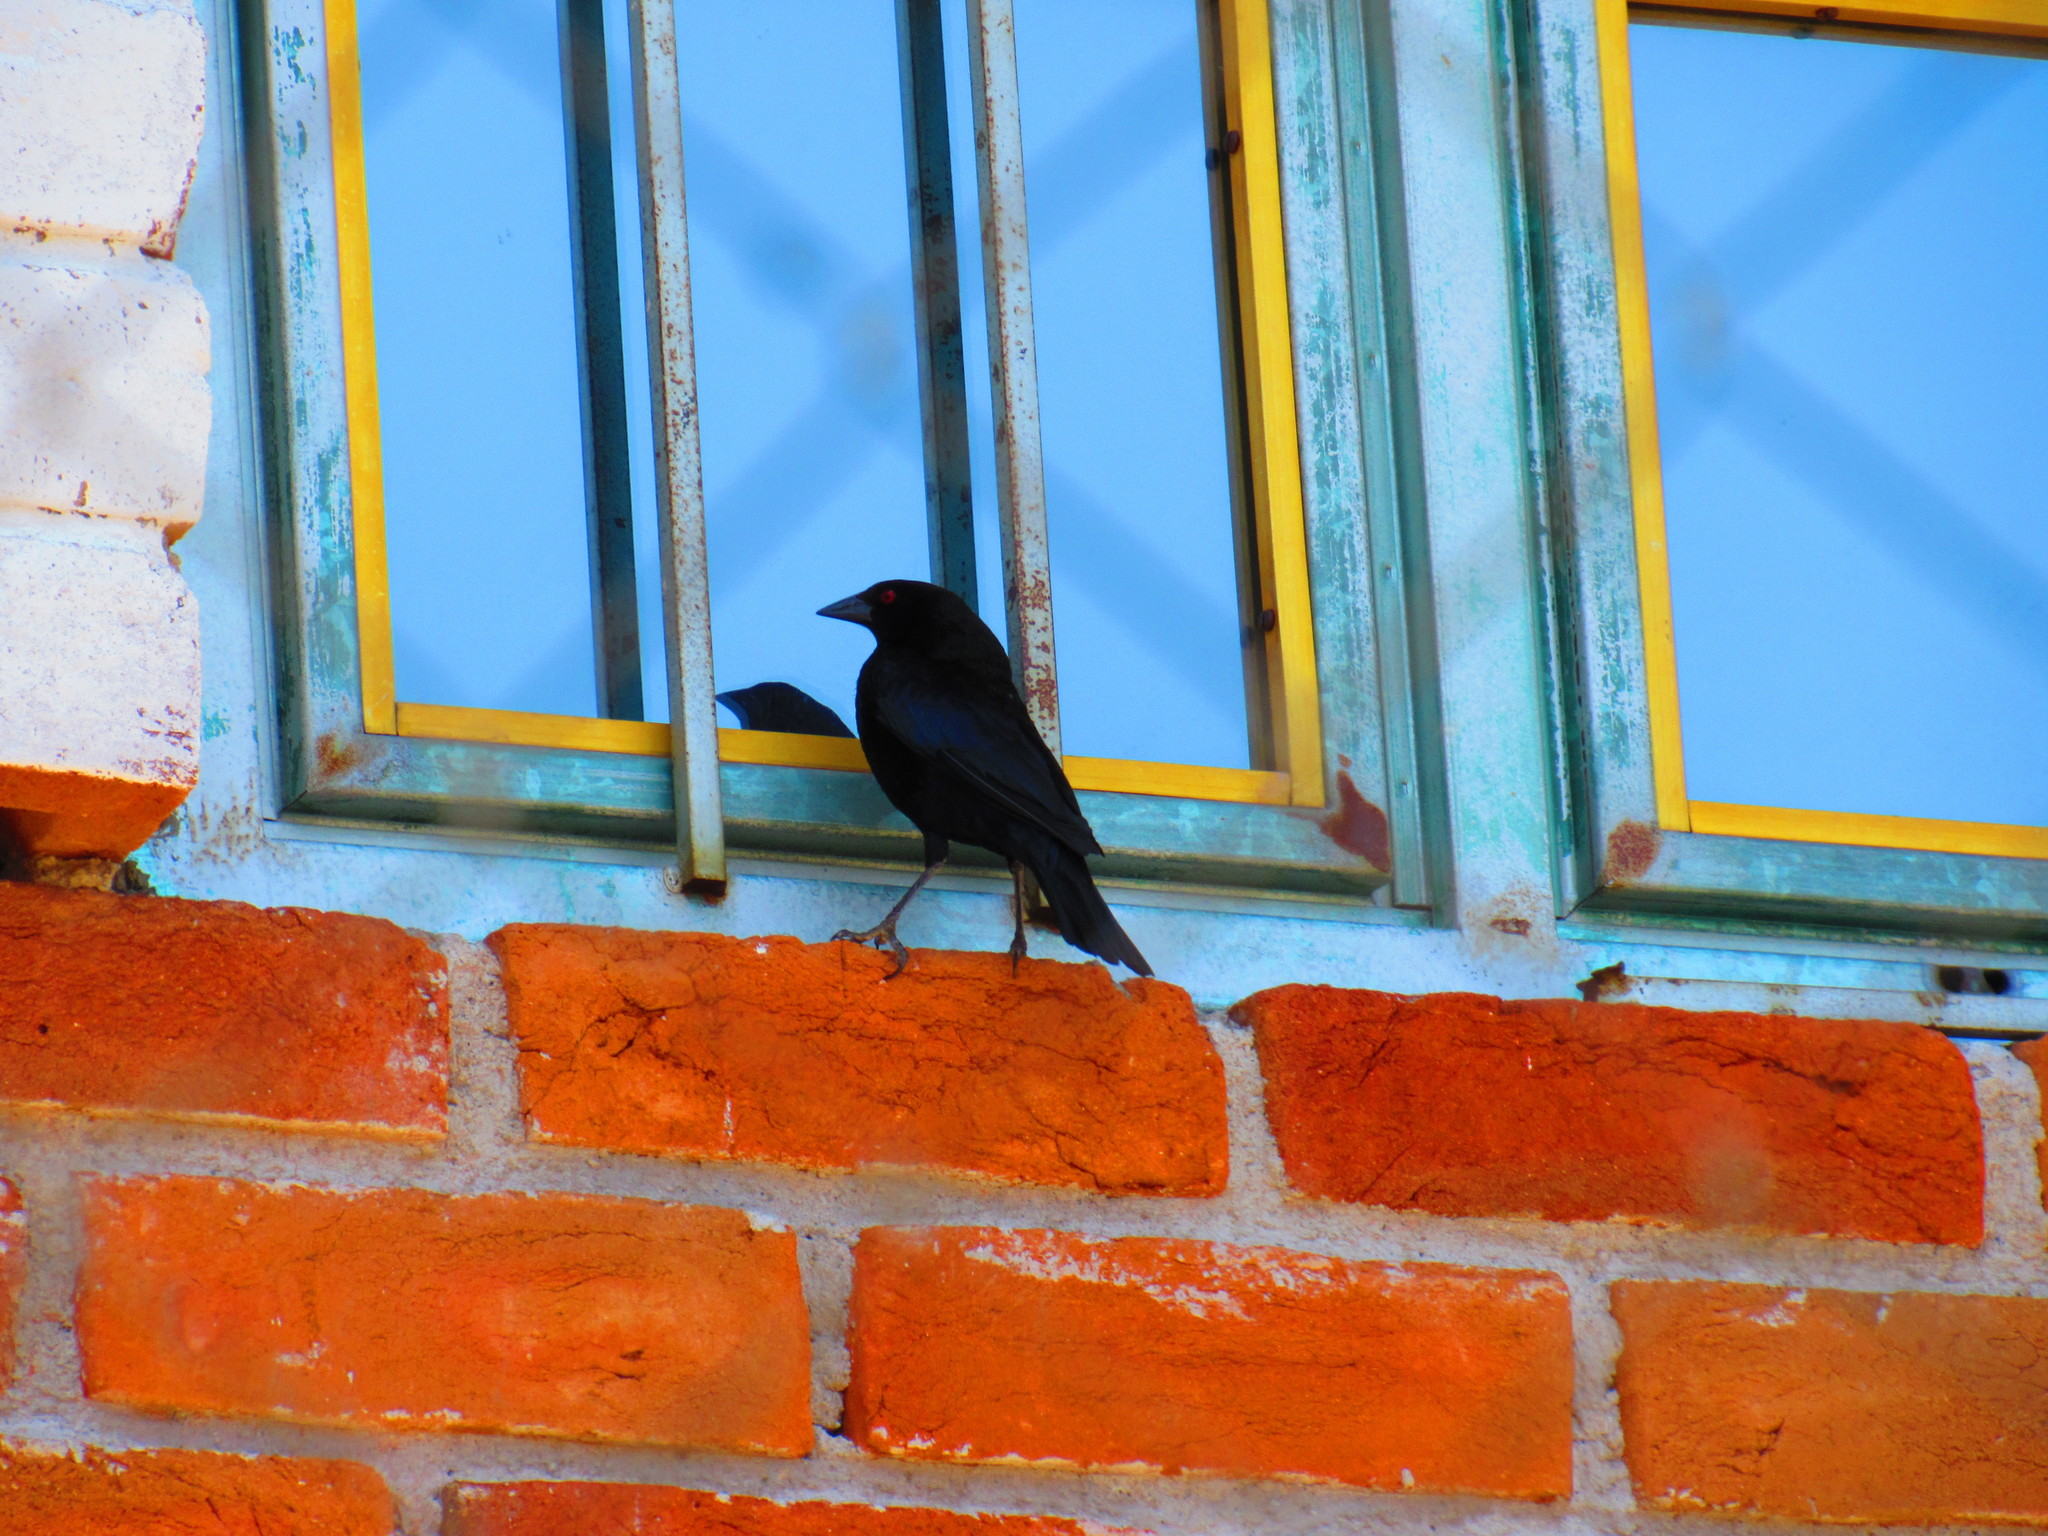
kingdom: Animalia
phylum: Chordata
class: Aves
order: Passeriformes
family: Icteridae
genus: Molothrus
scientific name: Molothrus aeneus
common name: Bronzed cowbird
